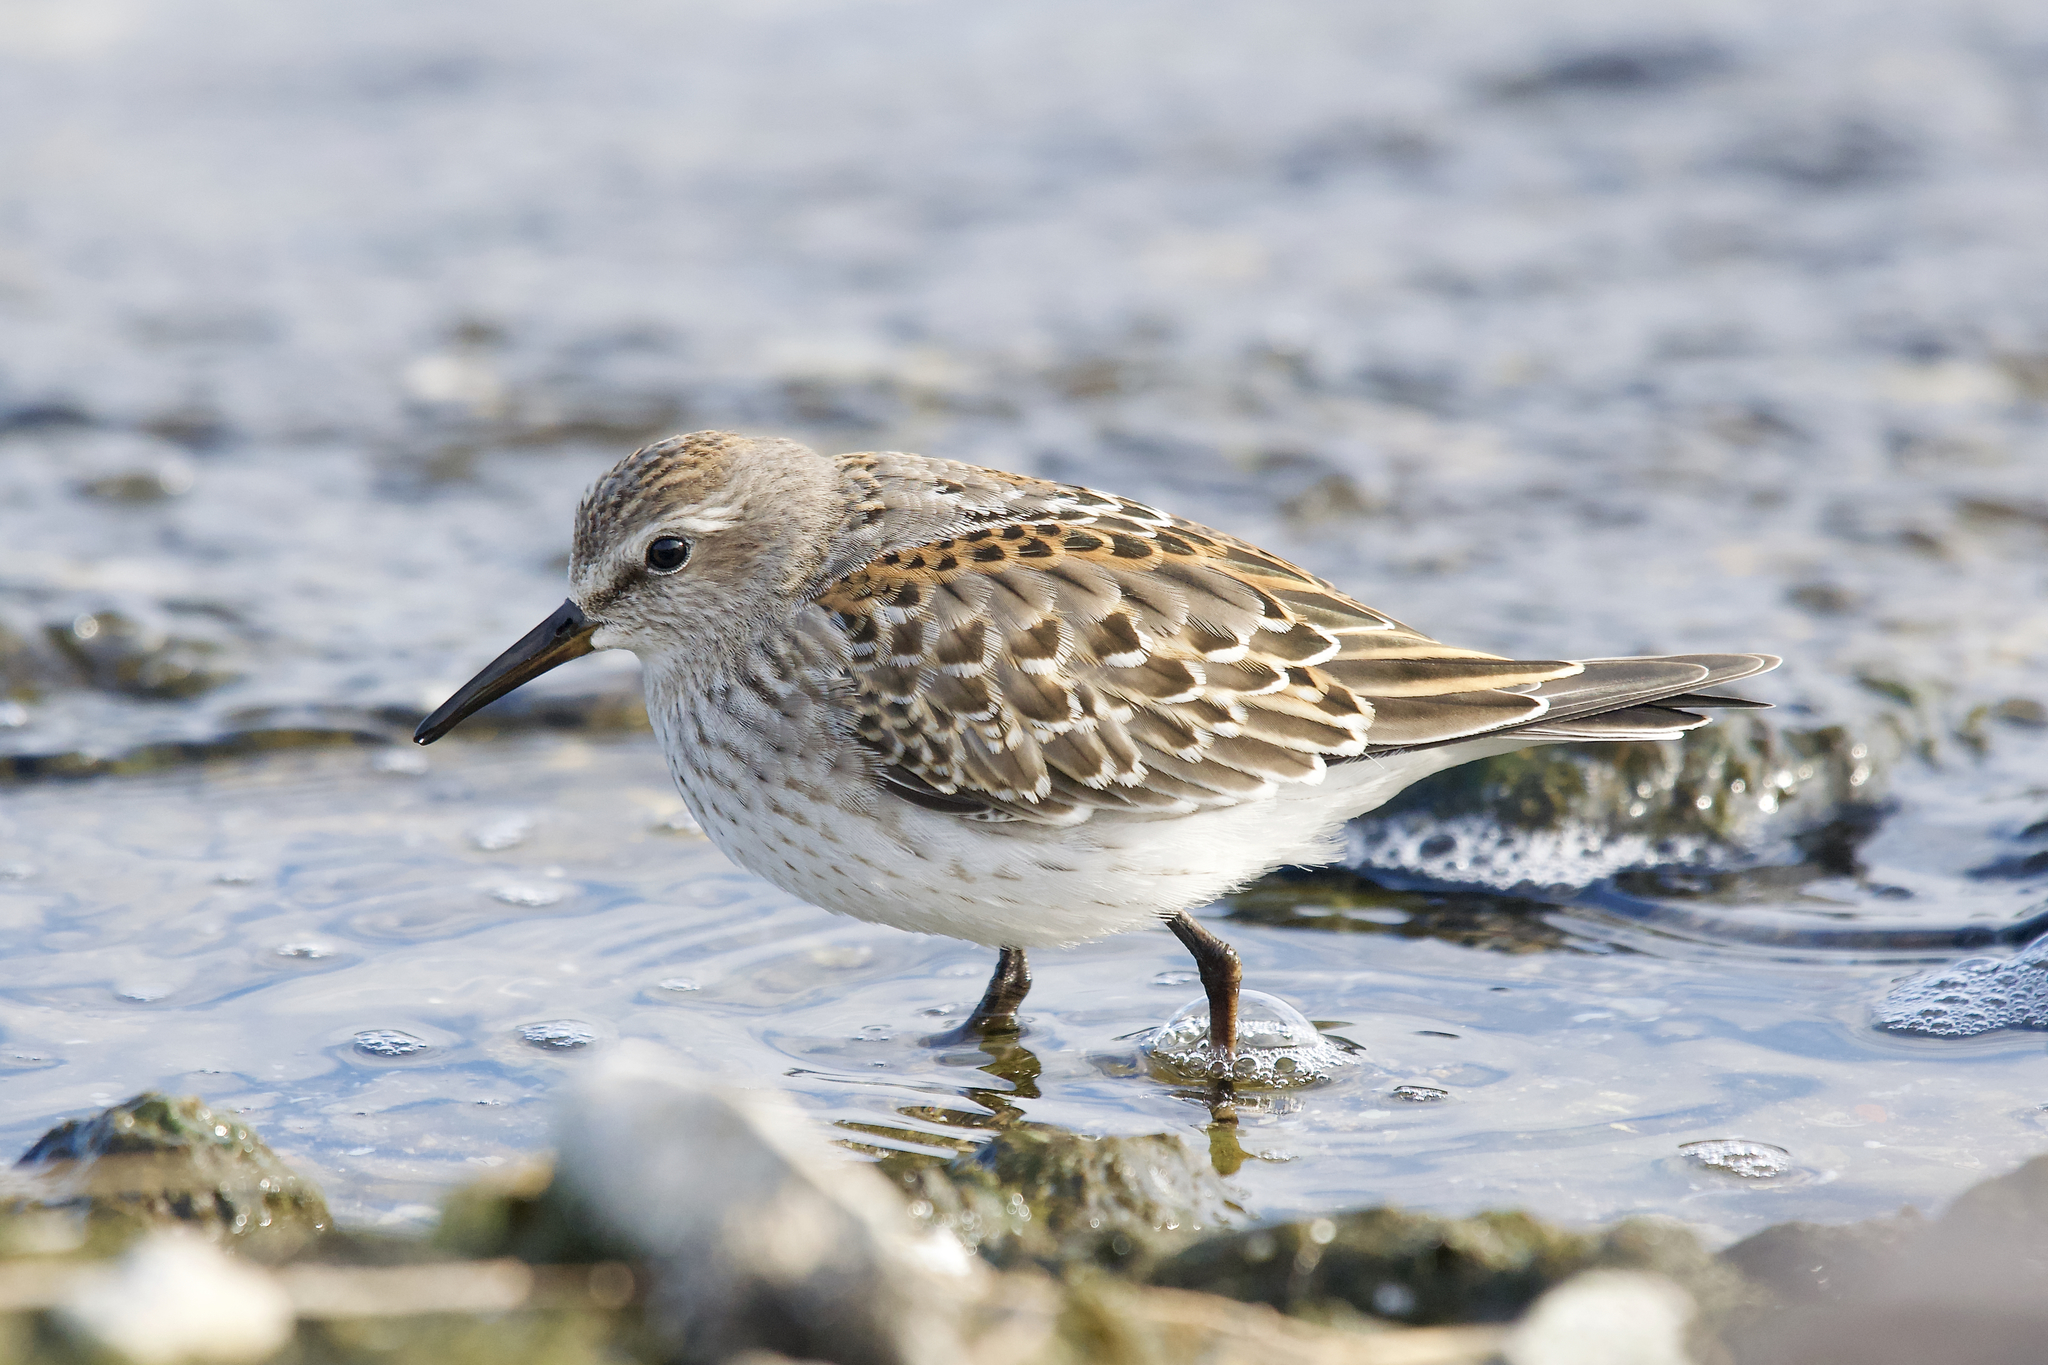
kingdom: Animalia
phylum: Chordata
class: Aves
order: Charadriiformes
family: Scolopacidae
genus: Calidris
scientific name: Calidris fuscicollis
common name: White-rumped sandpiper
